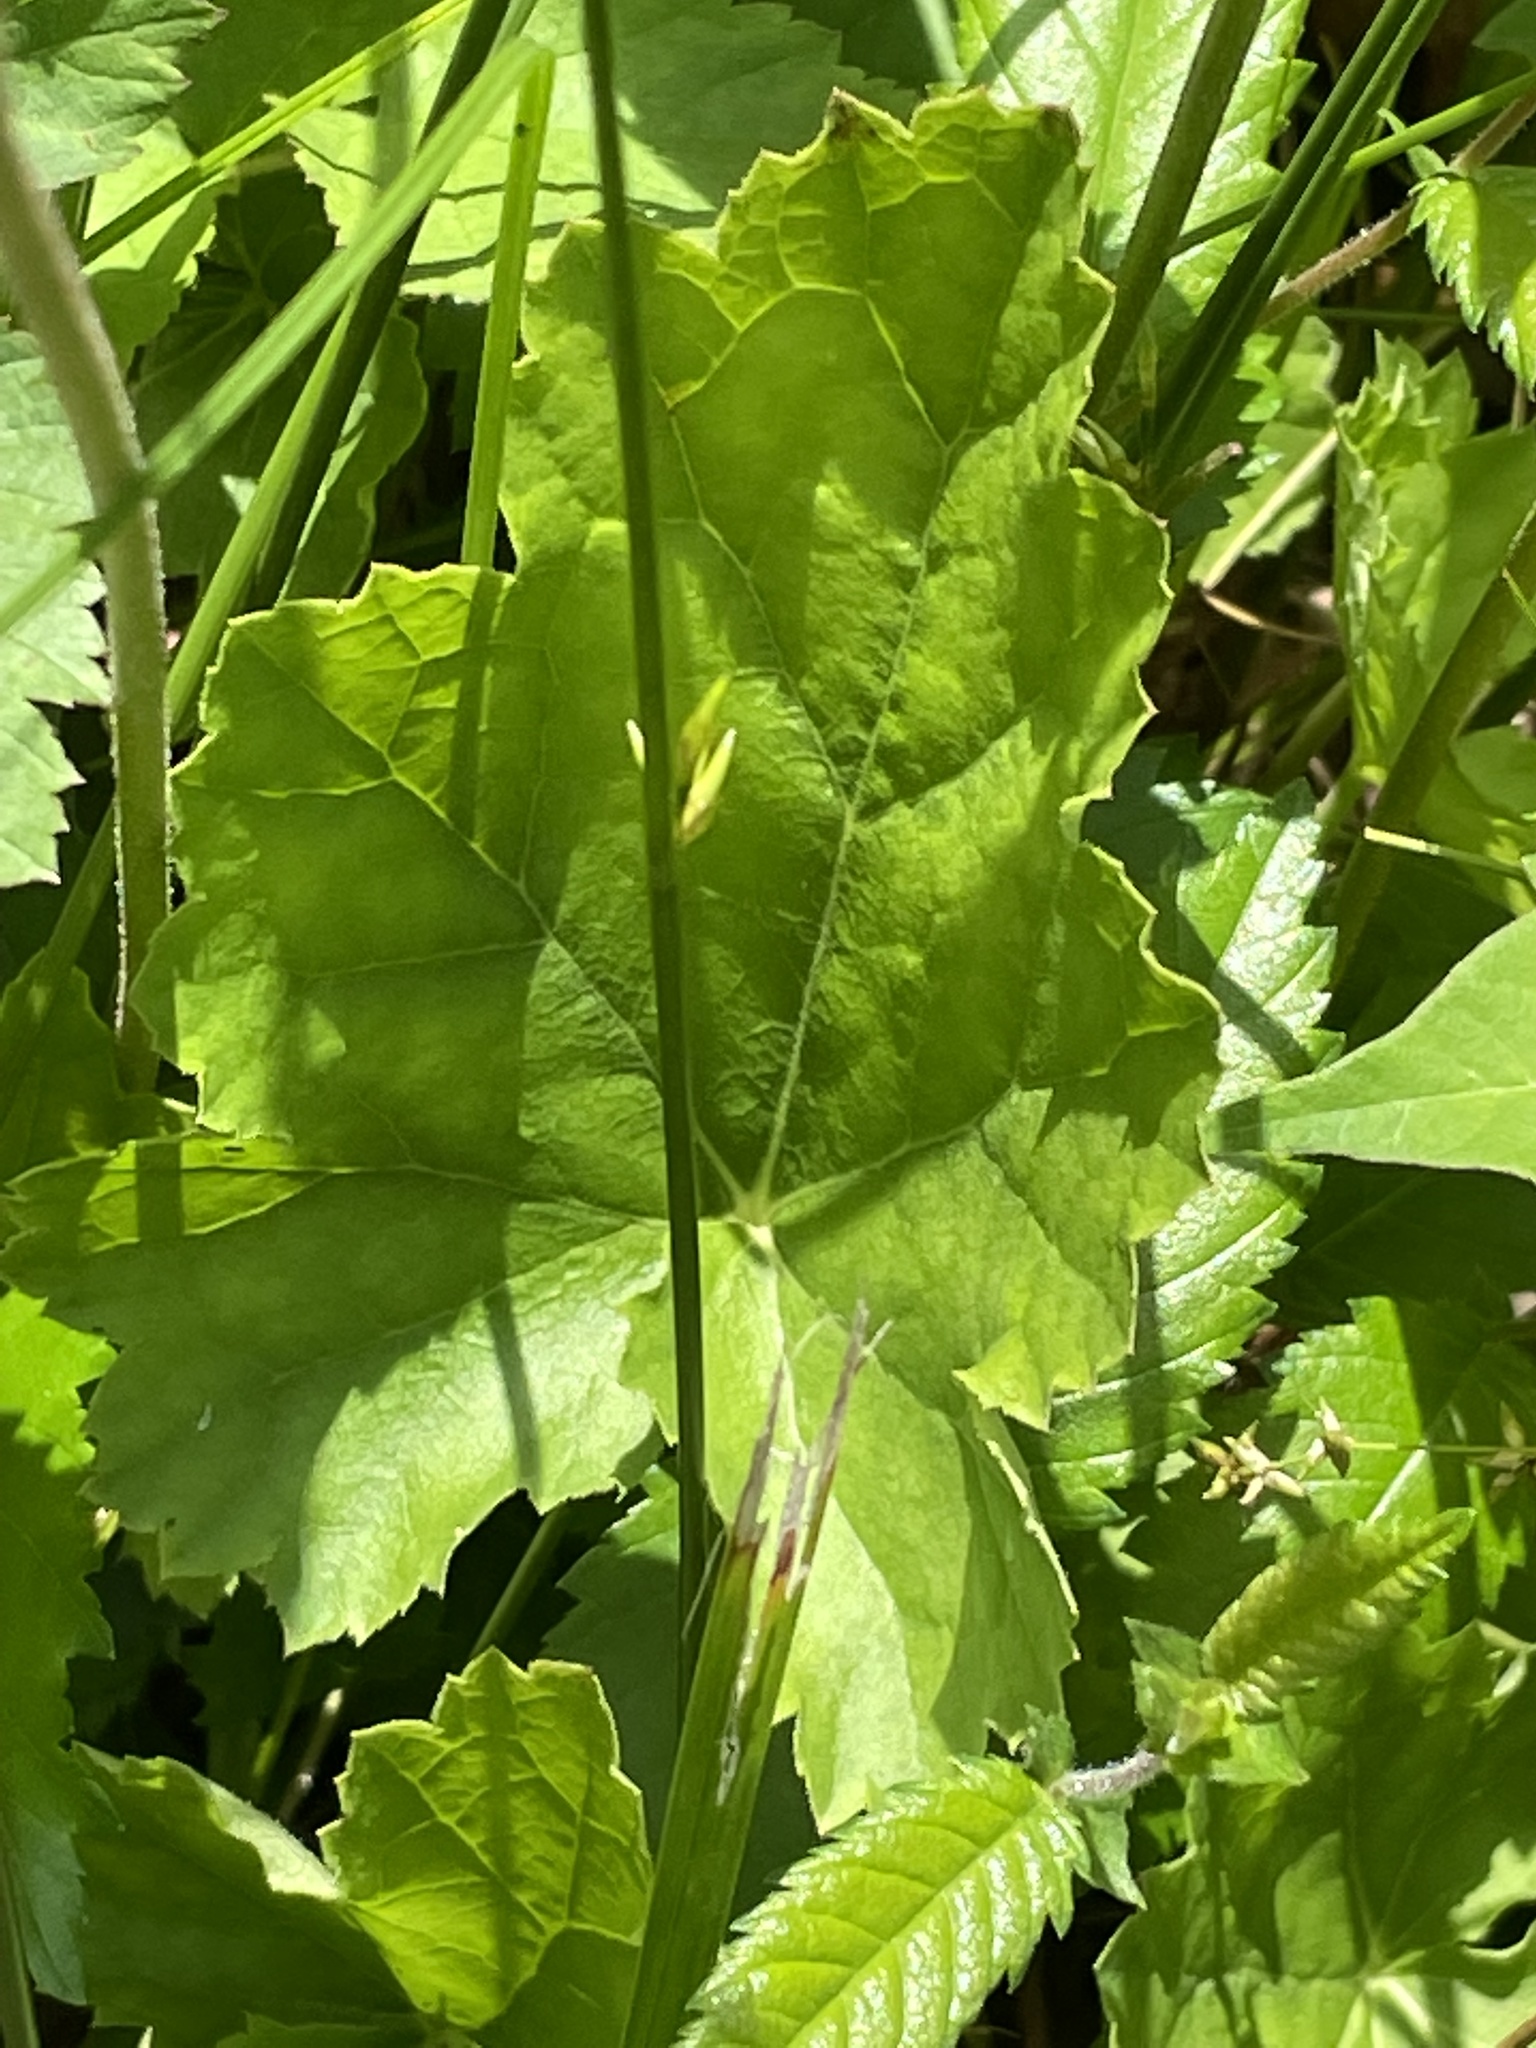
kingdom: Plantae
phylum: Tracheophyta
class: Magnoliopsida
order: Saxifragales
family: Saxifragaceae
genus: Heuchera
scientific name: Heuchera caroliniana
